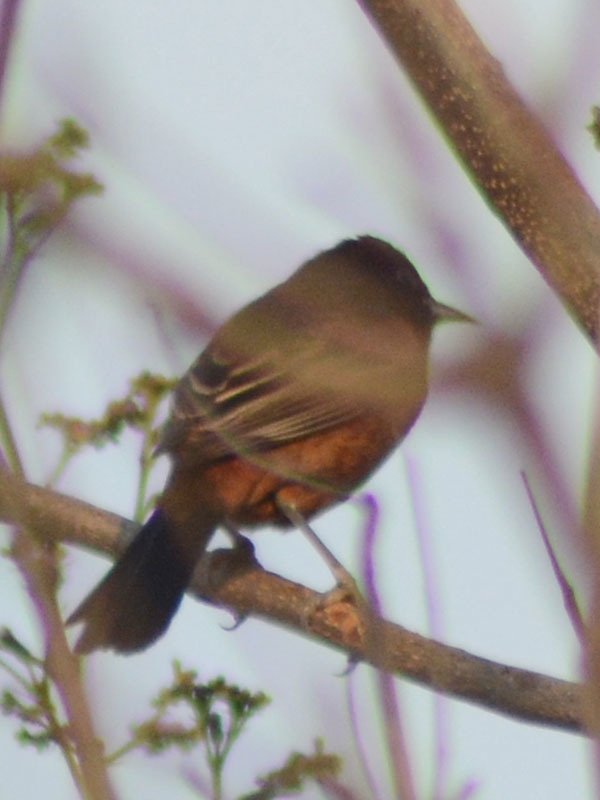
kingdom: Animalia
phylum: Chordata
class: Aves
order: Passeriformes
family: Icteridae
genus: Icterus
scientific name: Icterus spurius
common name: Orchard oriole
